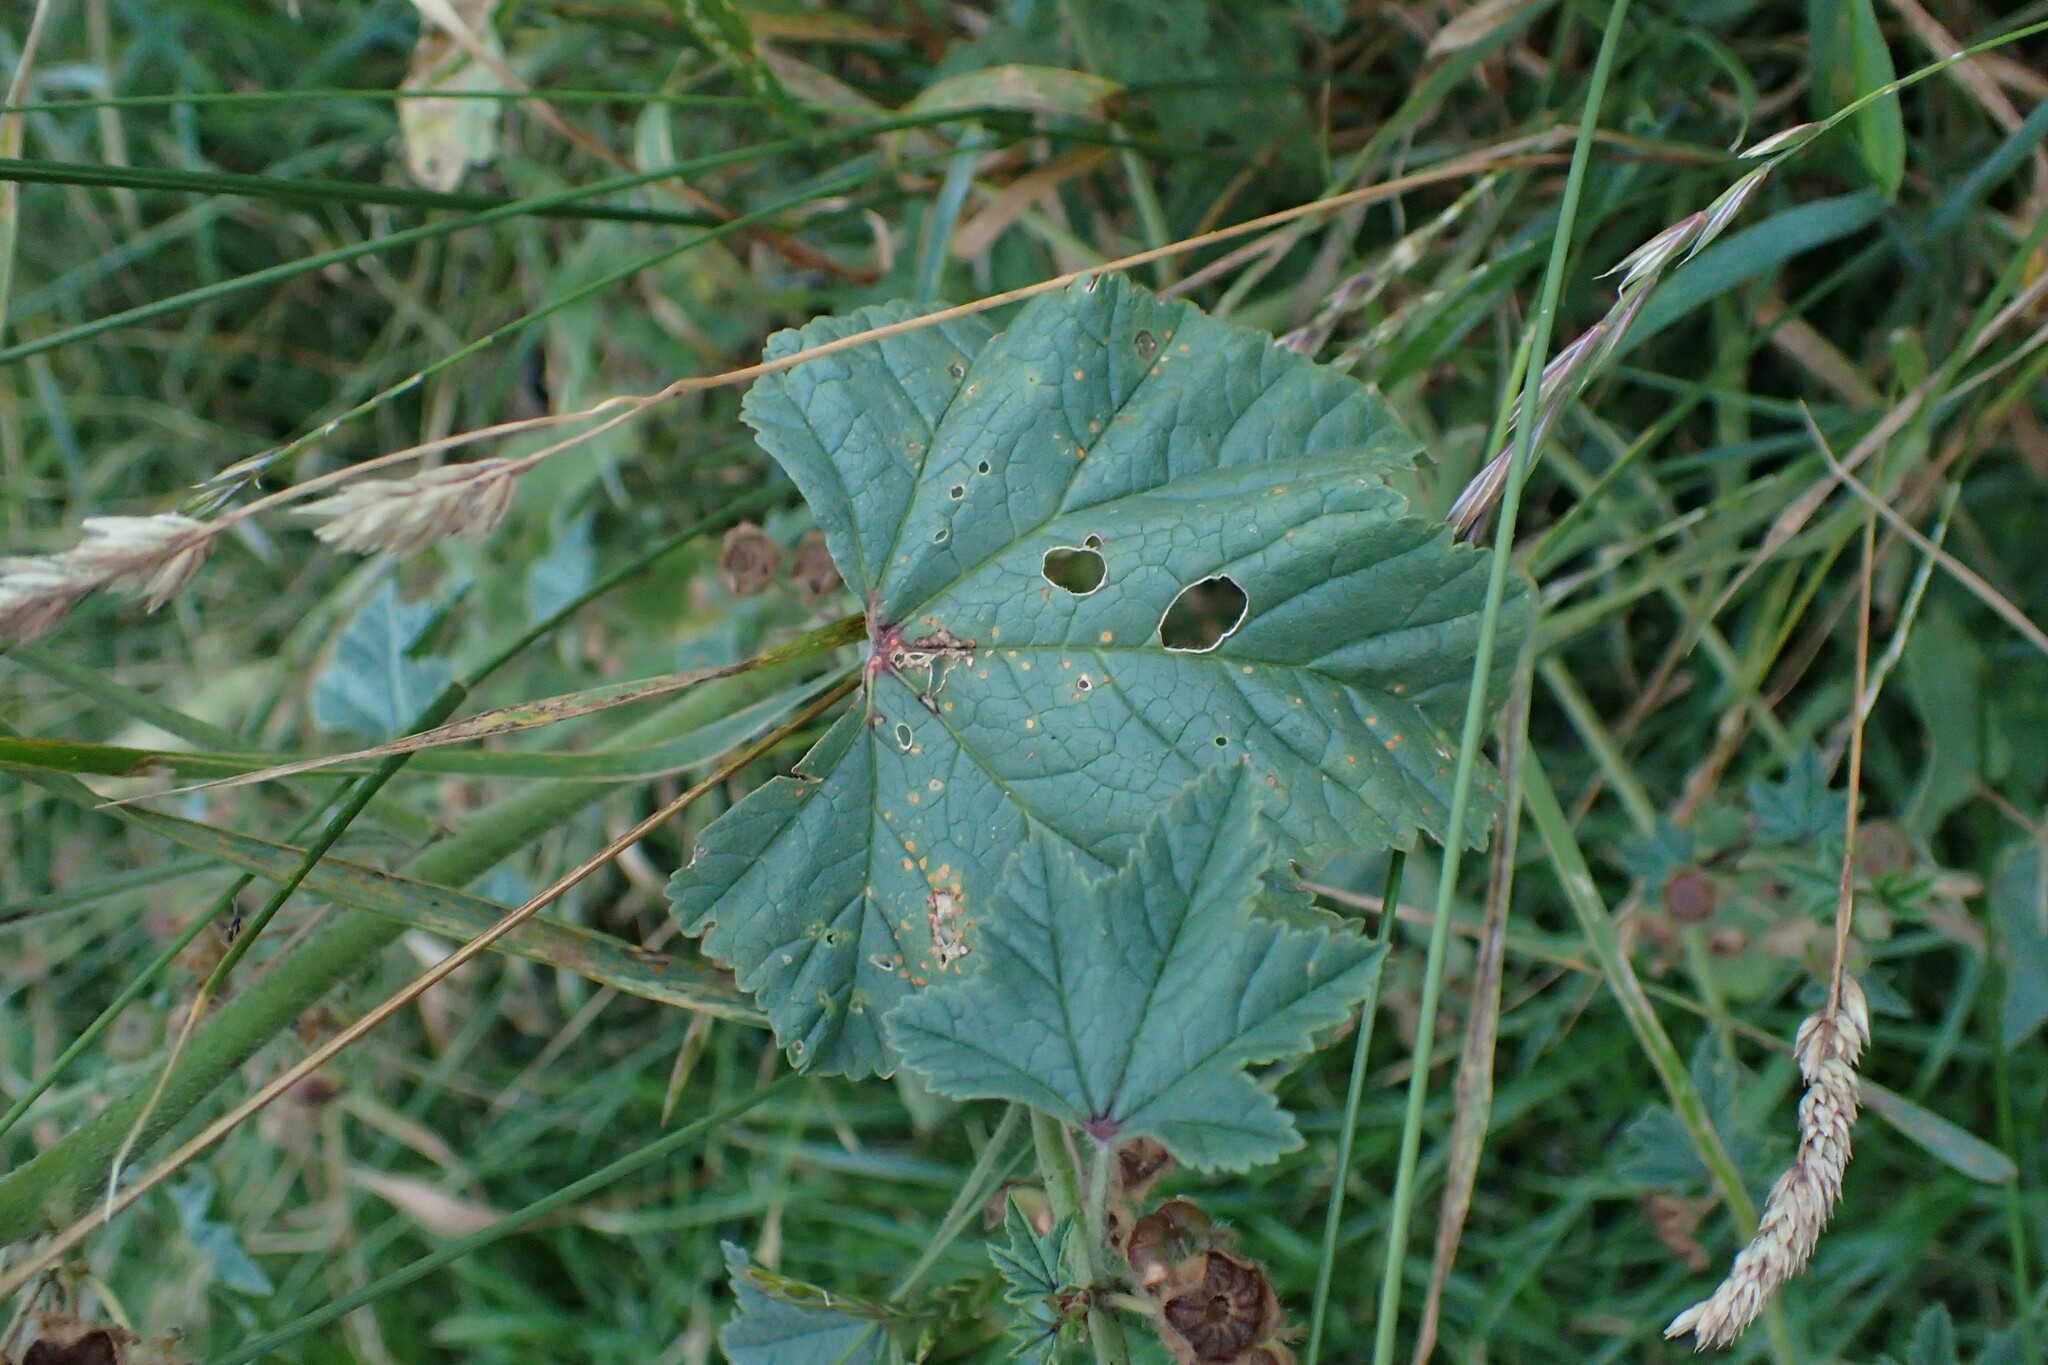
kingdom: Plantae
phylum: Tracheophyta
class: Magnoliopsida
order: Malvales
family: Malvaceae
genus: Malva
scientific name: Malva sylvestris
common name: Common mallow
